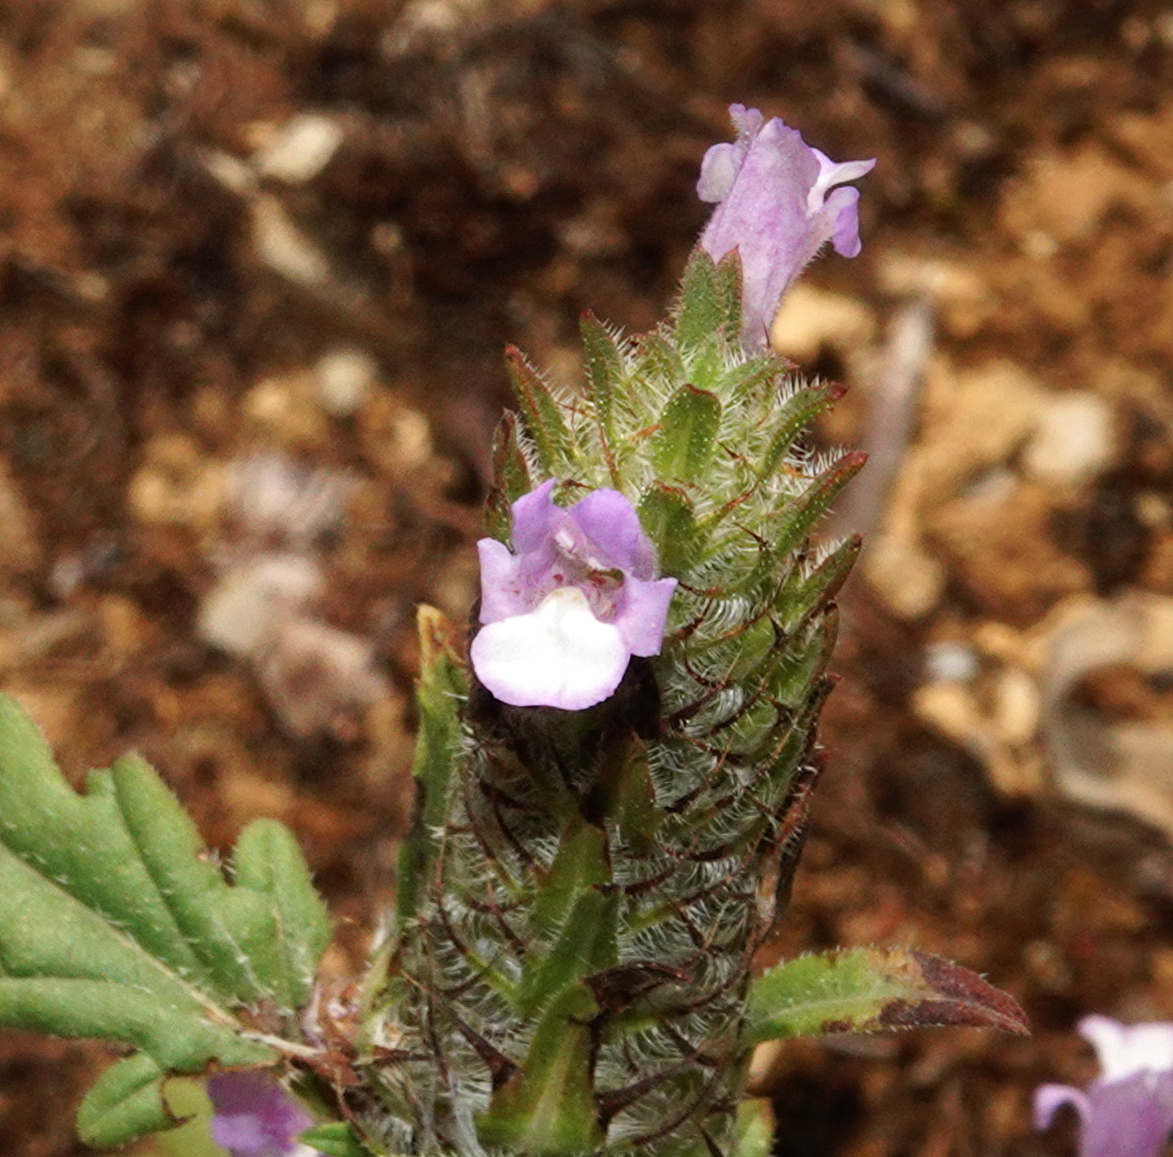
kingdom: Plantae
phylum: Tracheophyta
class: Magnoliopsida
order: Lamiales
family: Lamiaceae
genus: Cleonia
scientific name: Cleonia lusitanica
